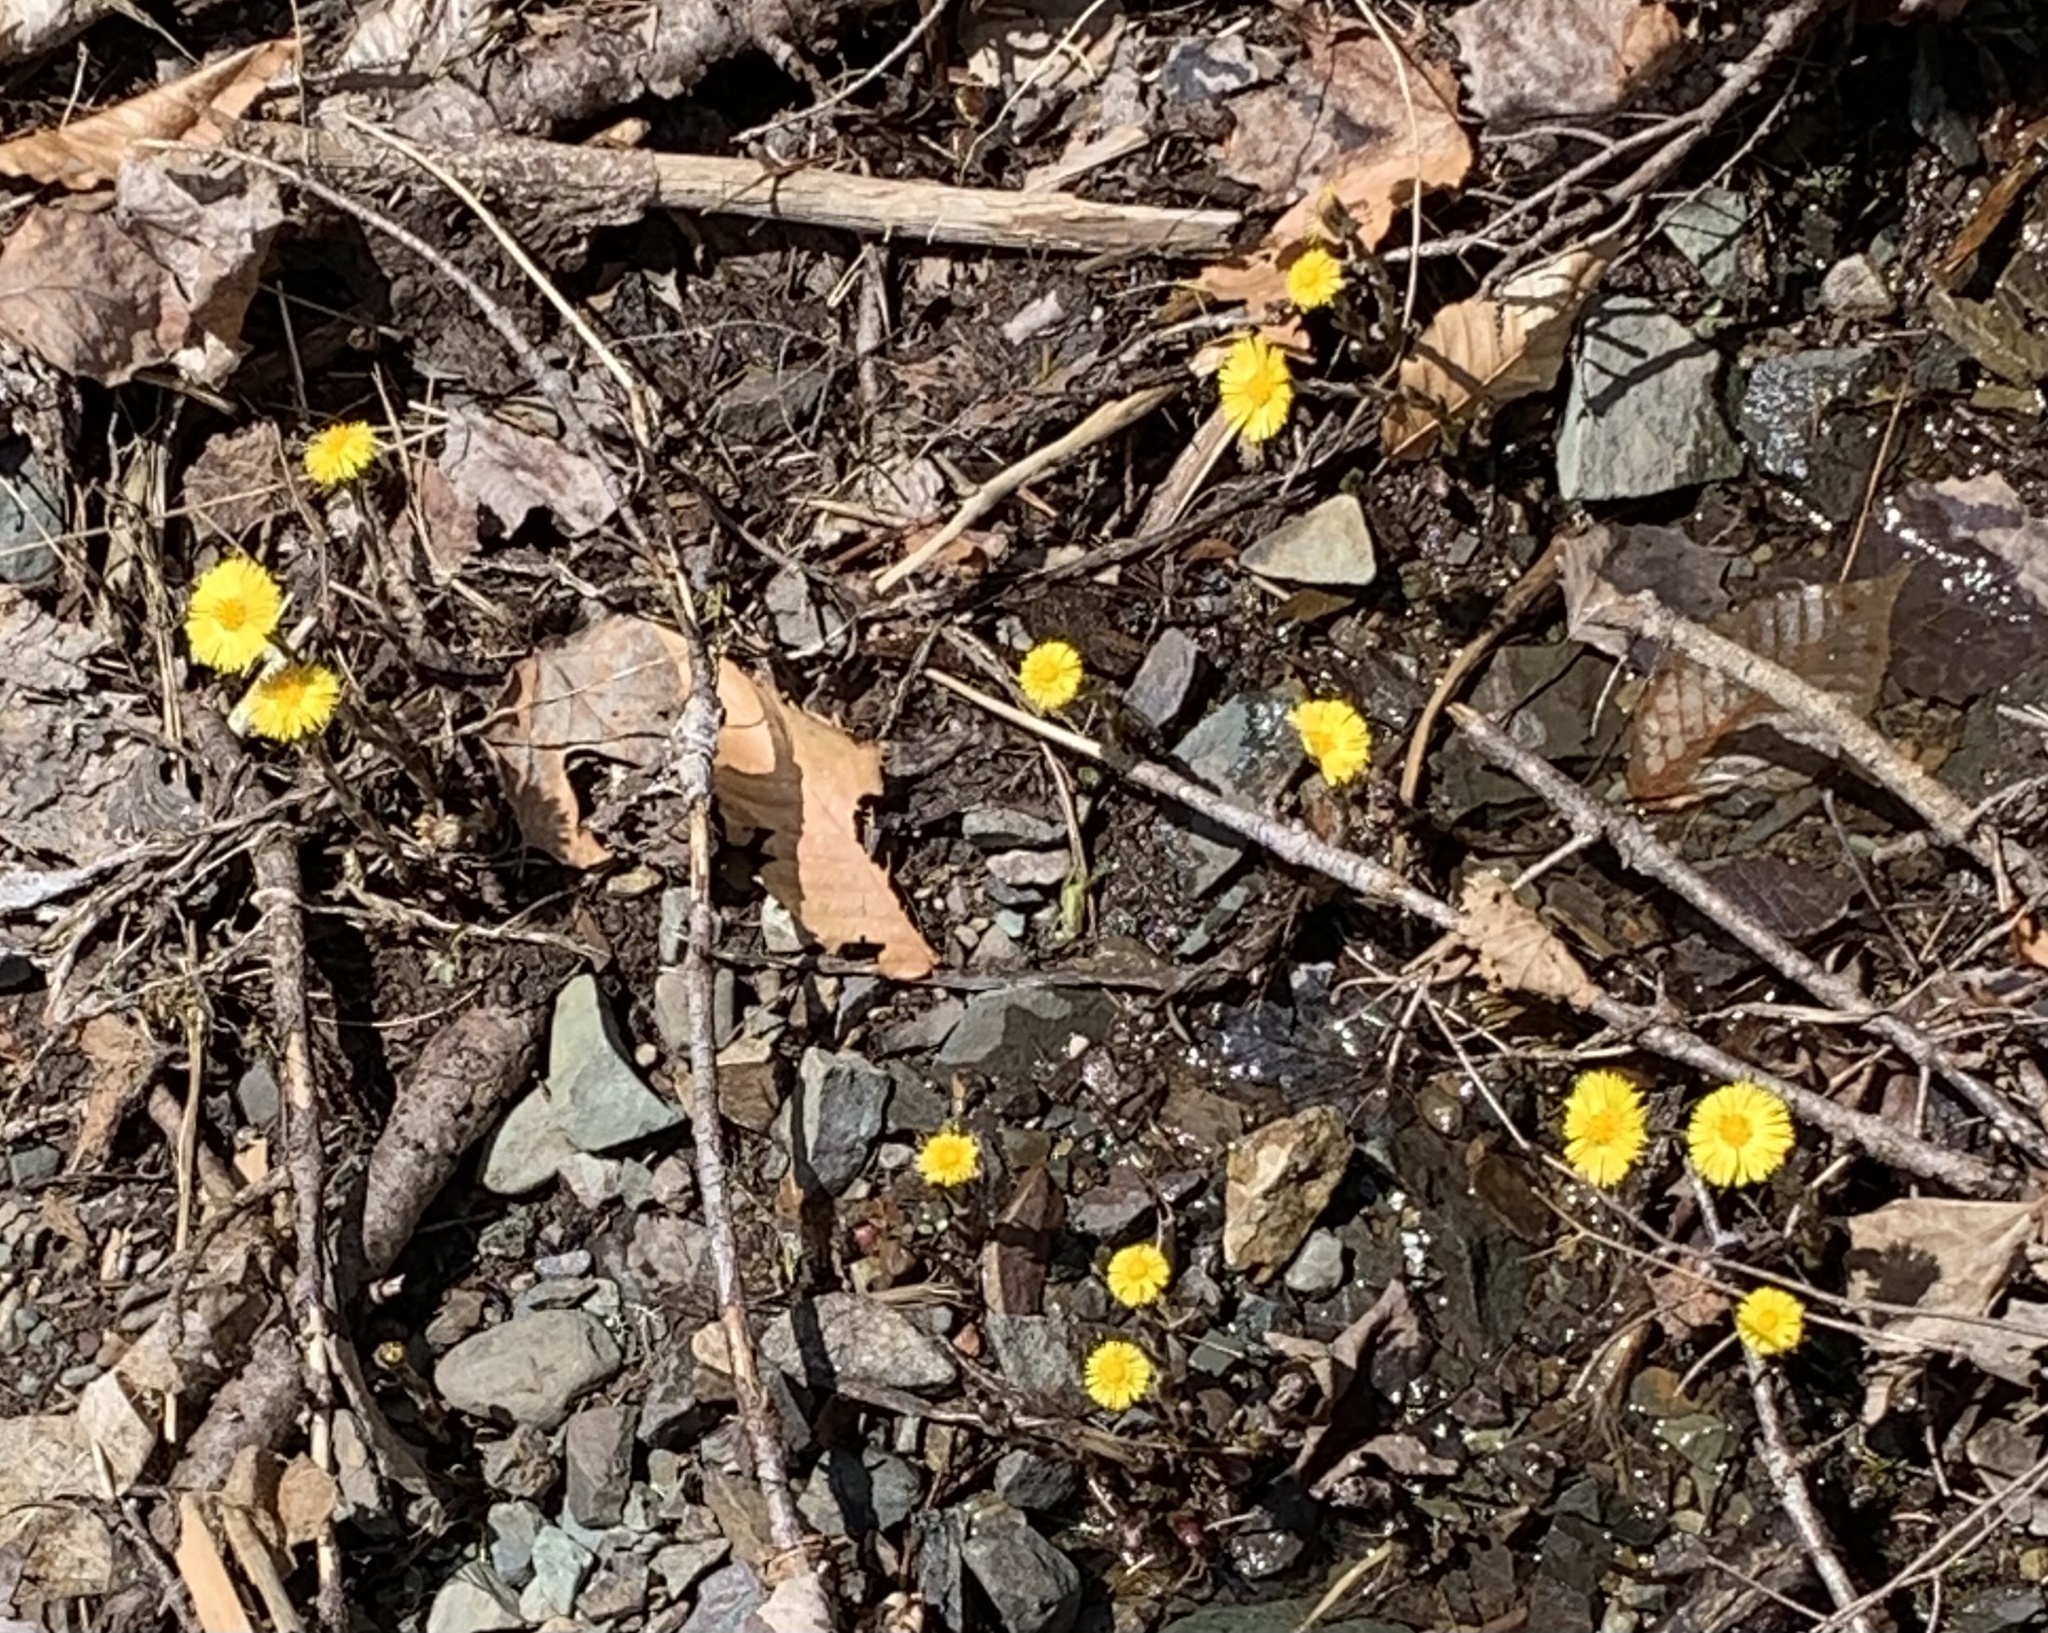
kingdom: Plantae
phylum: Tracheophyta
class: Magnoliopsida
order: Asterales
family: Asteraceae
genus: Tussilago
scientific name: Tussilago farfara
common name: Coltsfoot
